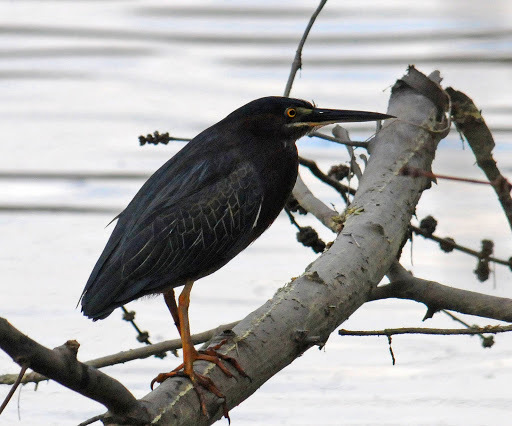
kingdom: Animalia
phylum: Chordata
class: Aves
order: Pelecaniformes
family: Ardeidae
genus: Butorides
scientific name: Butorides virescens
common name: Green heron
